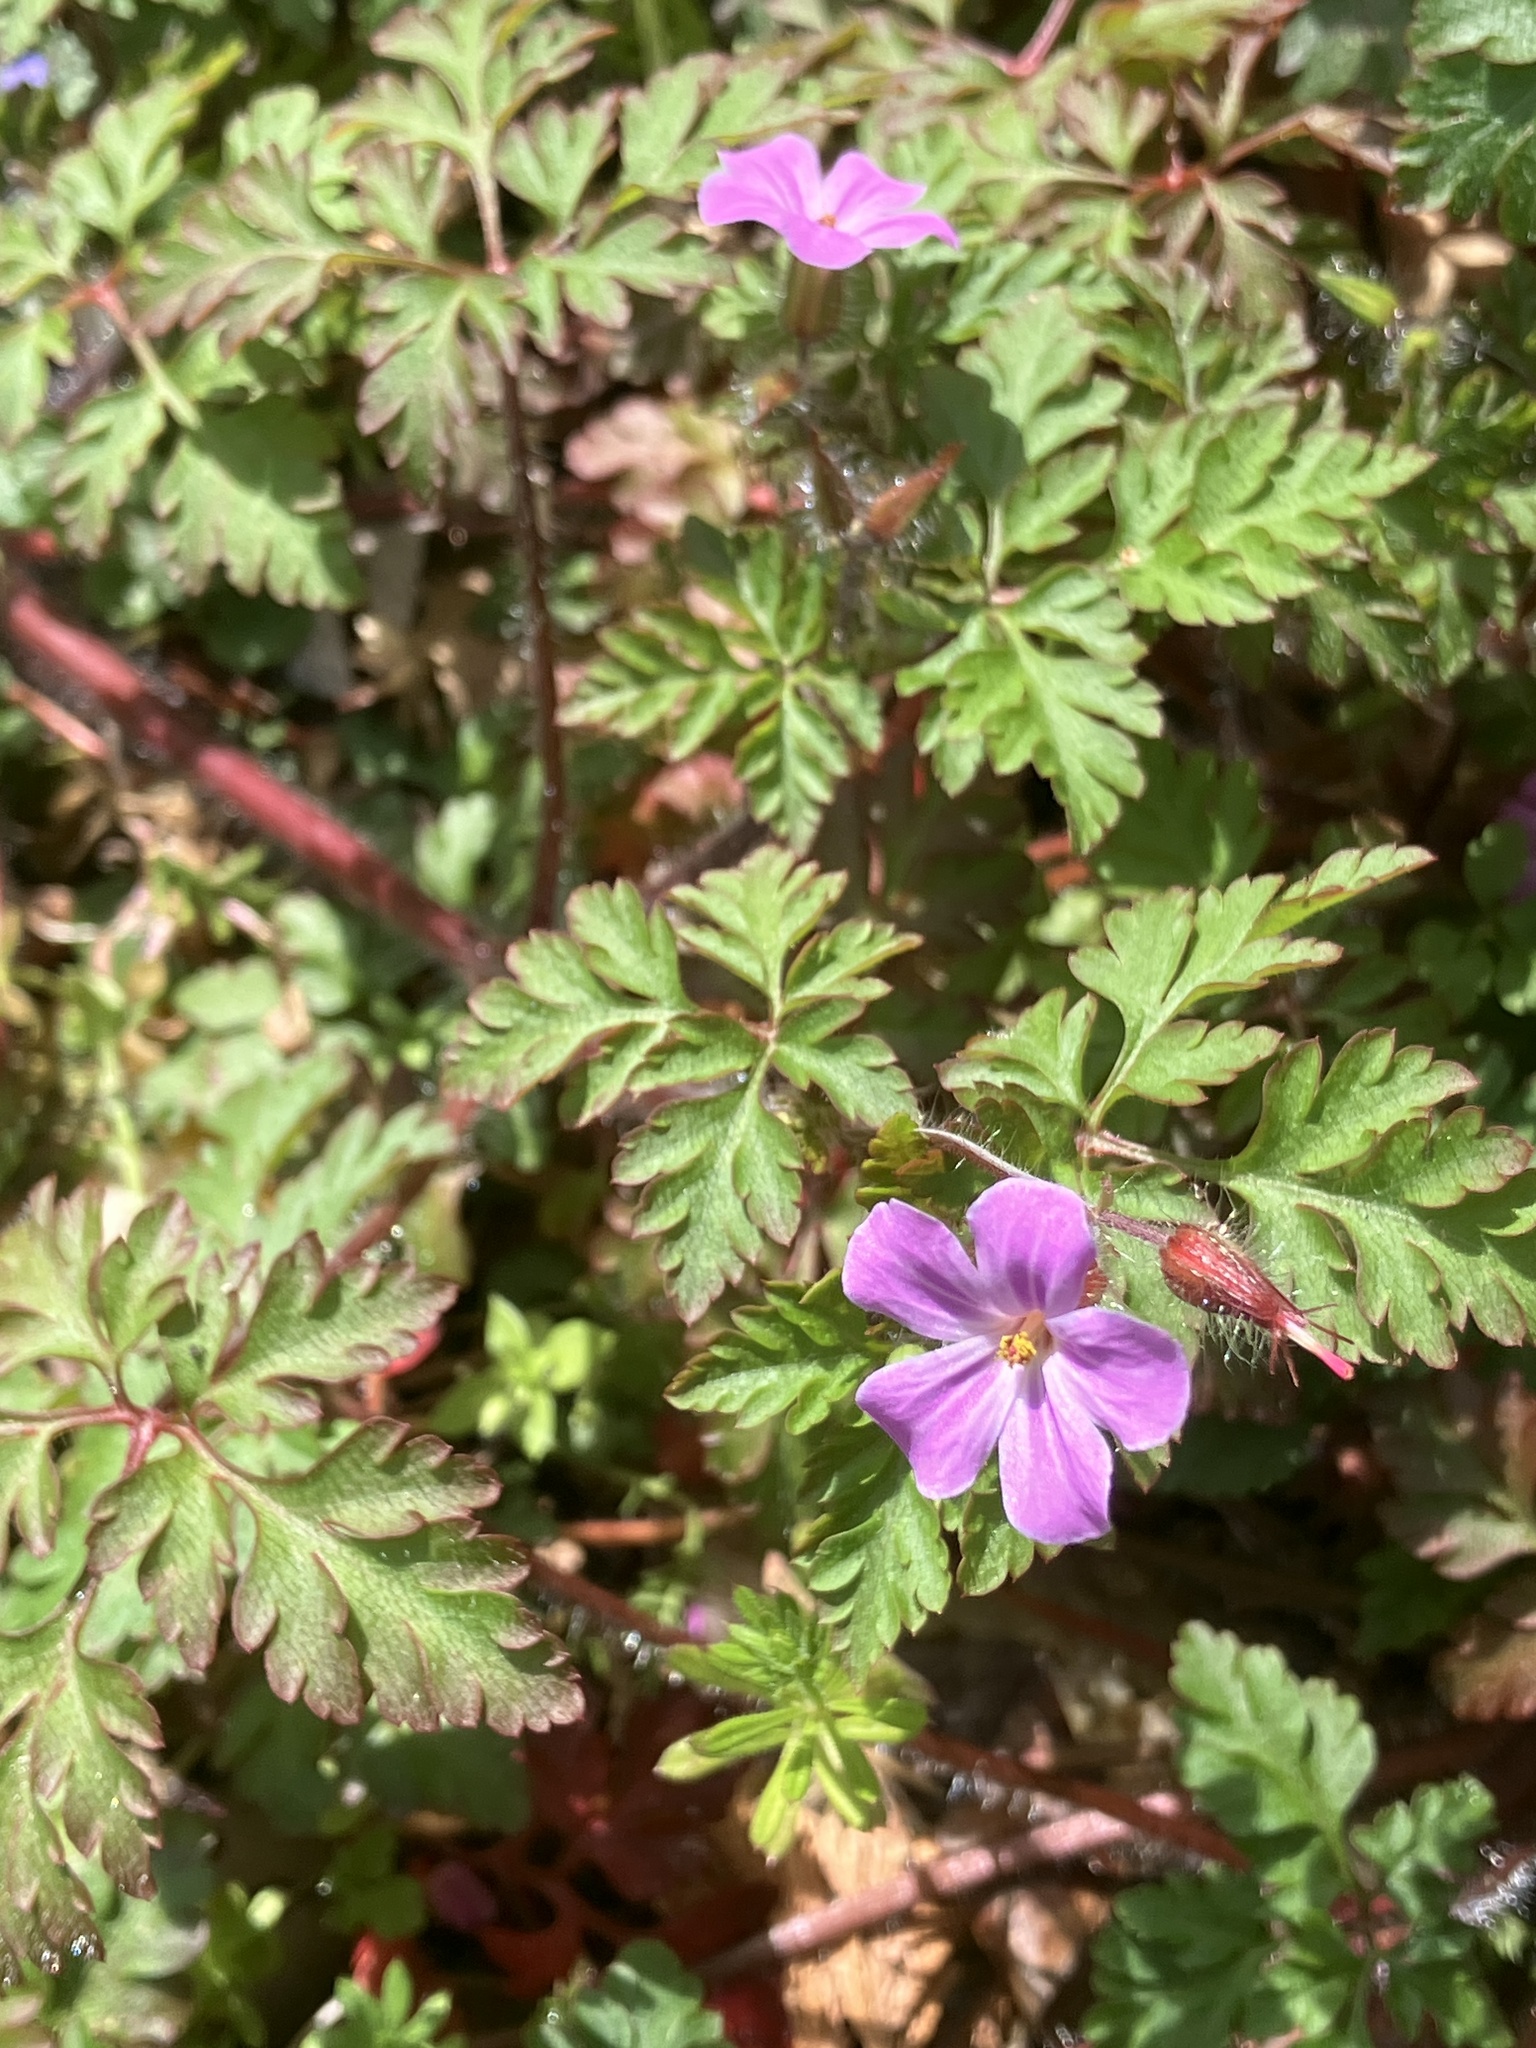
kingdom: Plantae
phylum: Tracheophyta
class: Magnoliopsida
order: Geraniales
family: Geraniaceae
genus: Geranium
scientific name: Geranium robertianum
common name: Herb-robert
